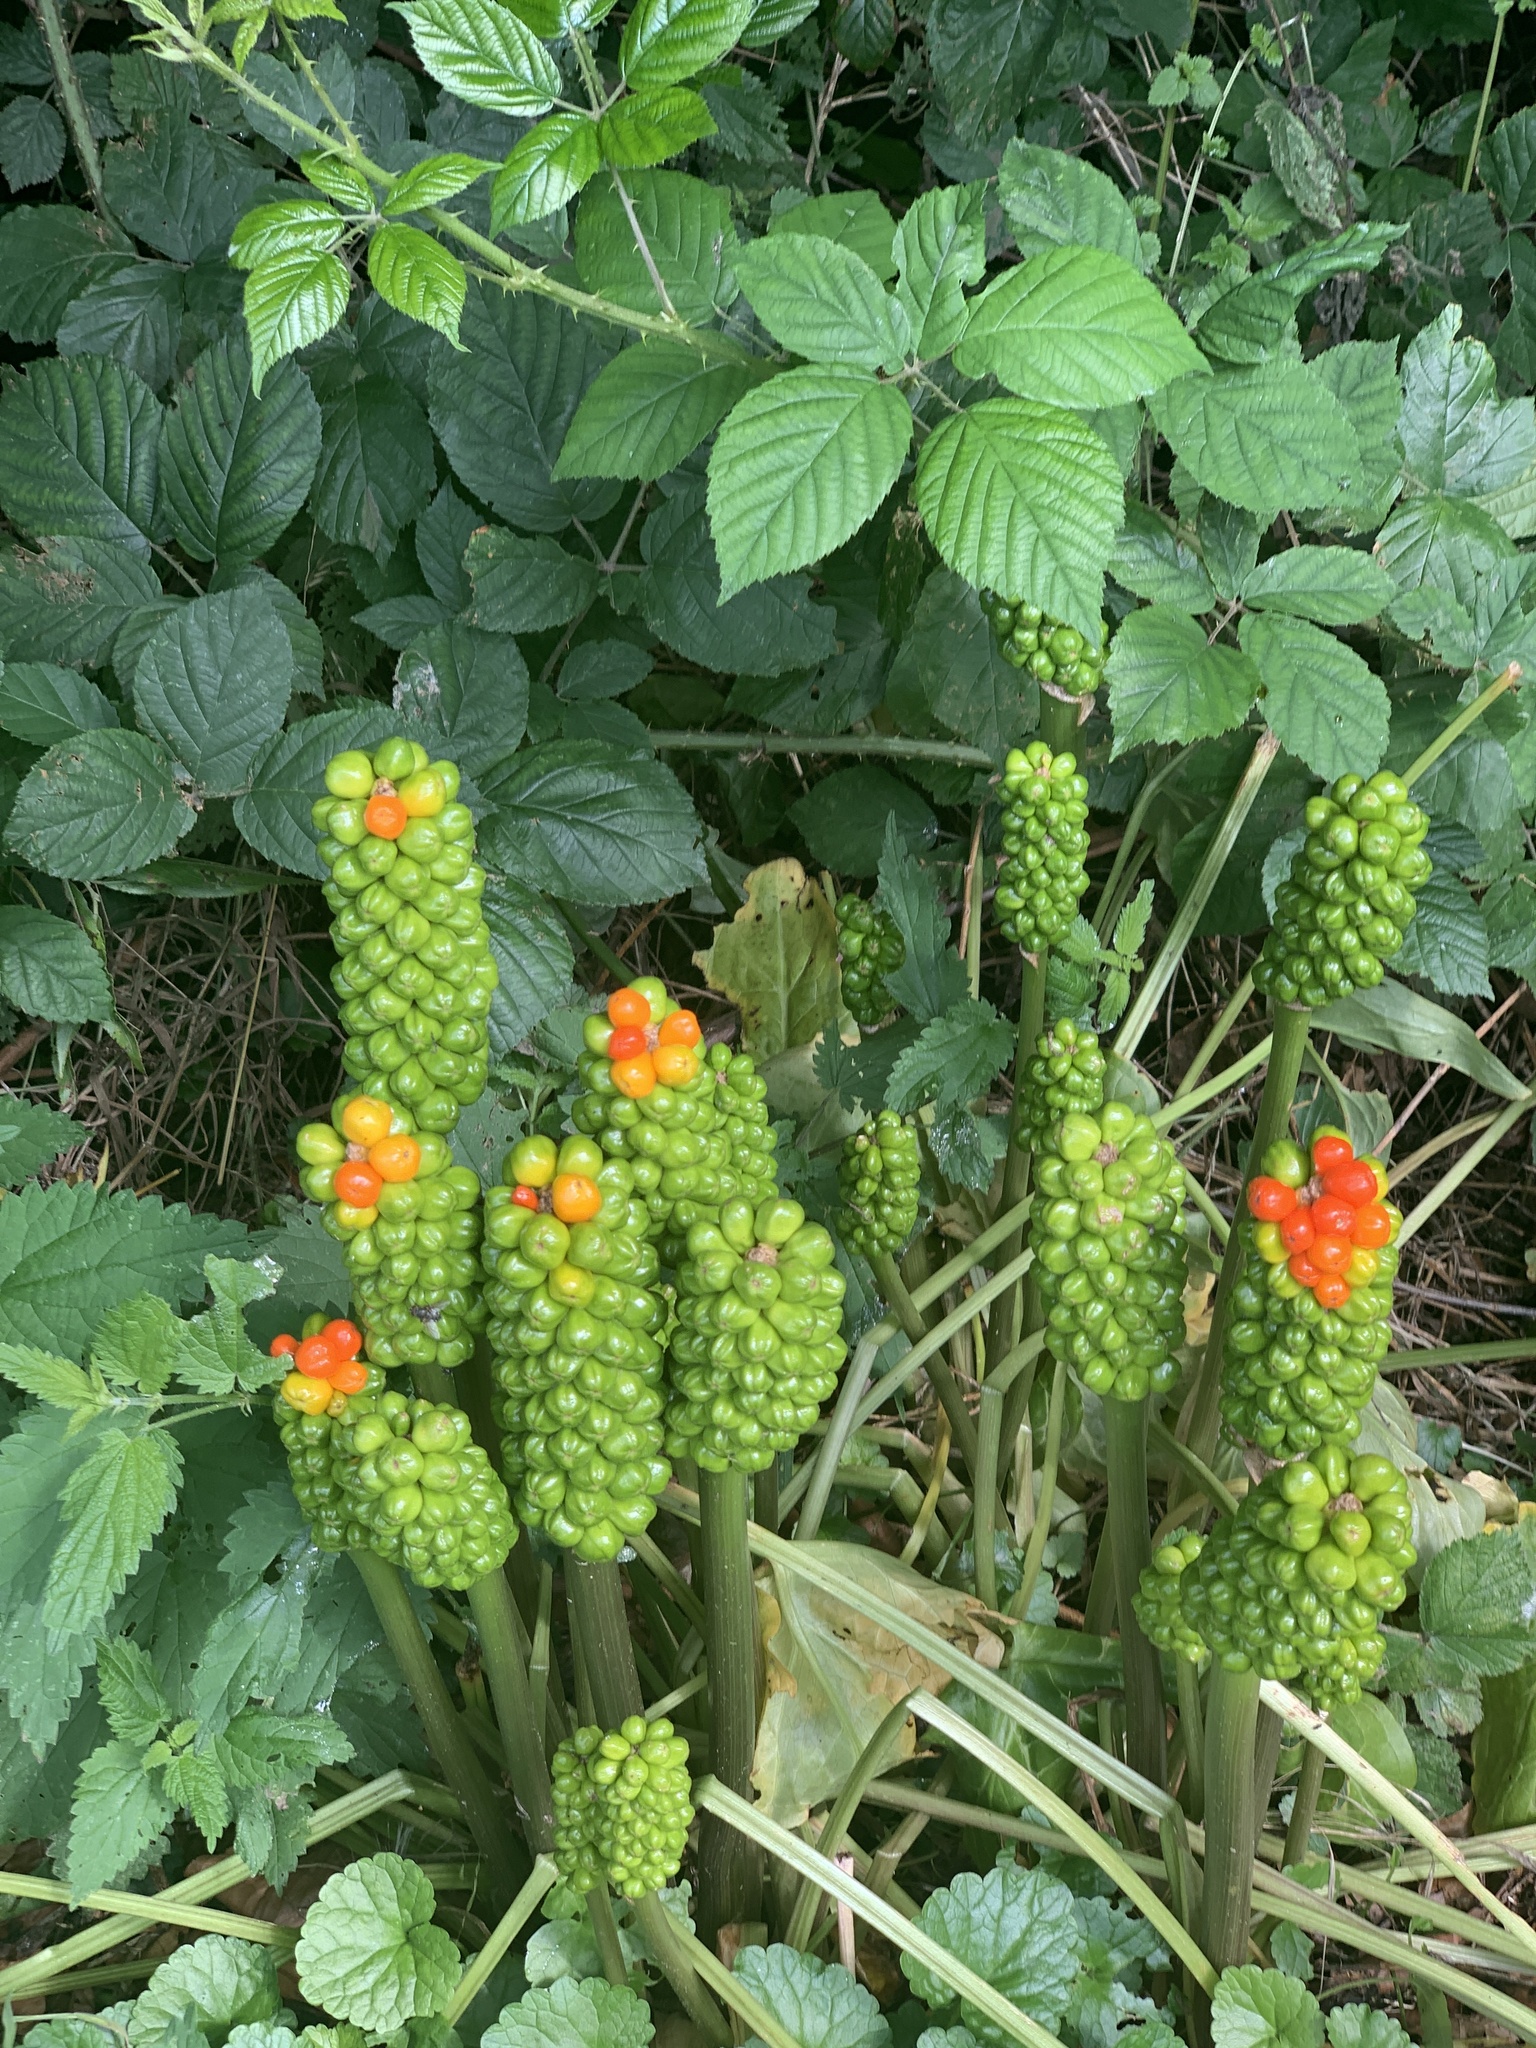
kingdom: Plantae
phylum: Tracheophyta
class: Liliopsida
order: Alismatales
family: Araceae
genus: Arum
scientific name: Arum maculatum
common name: Lords-and-ladies
